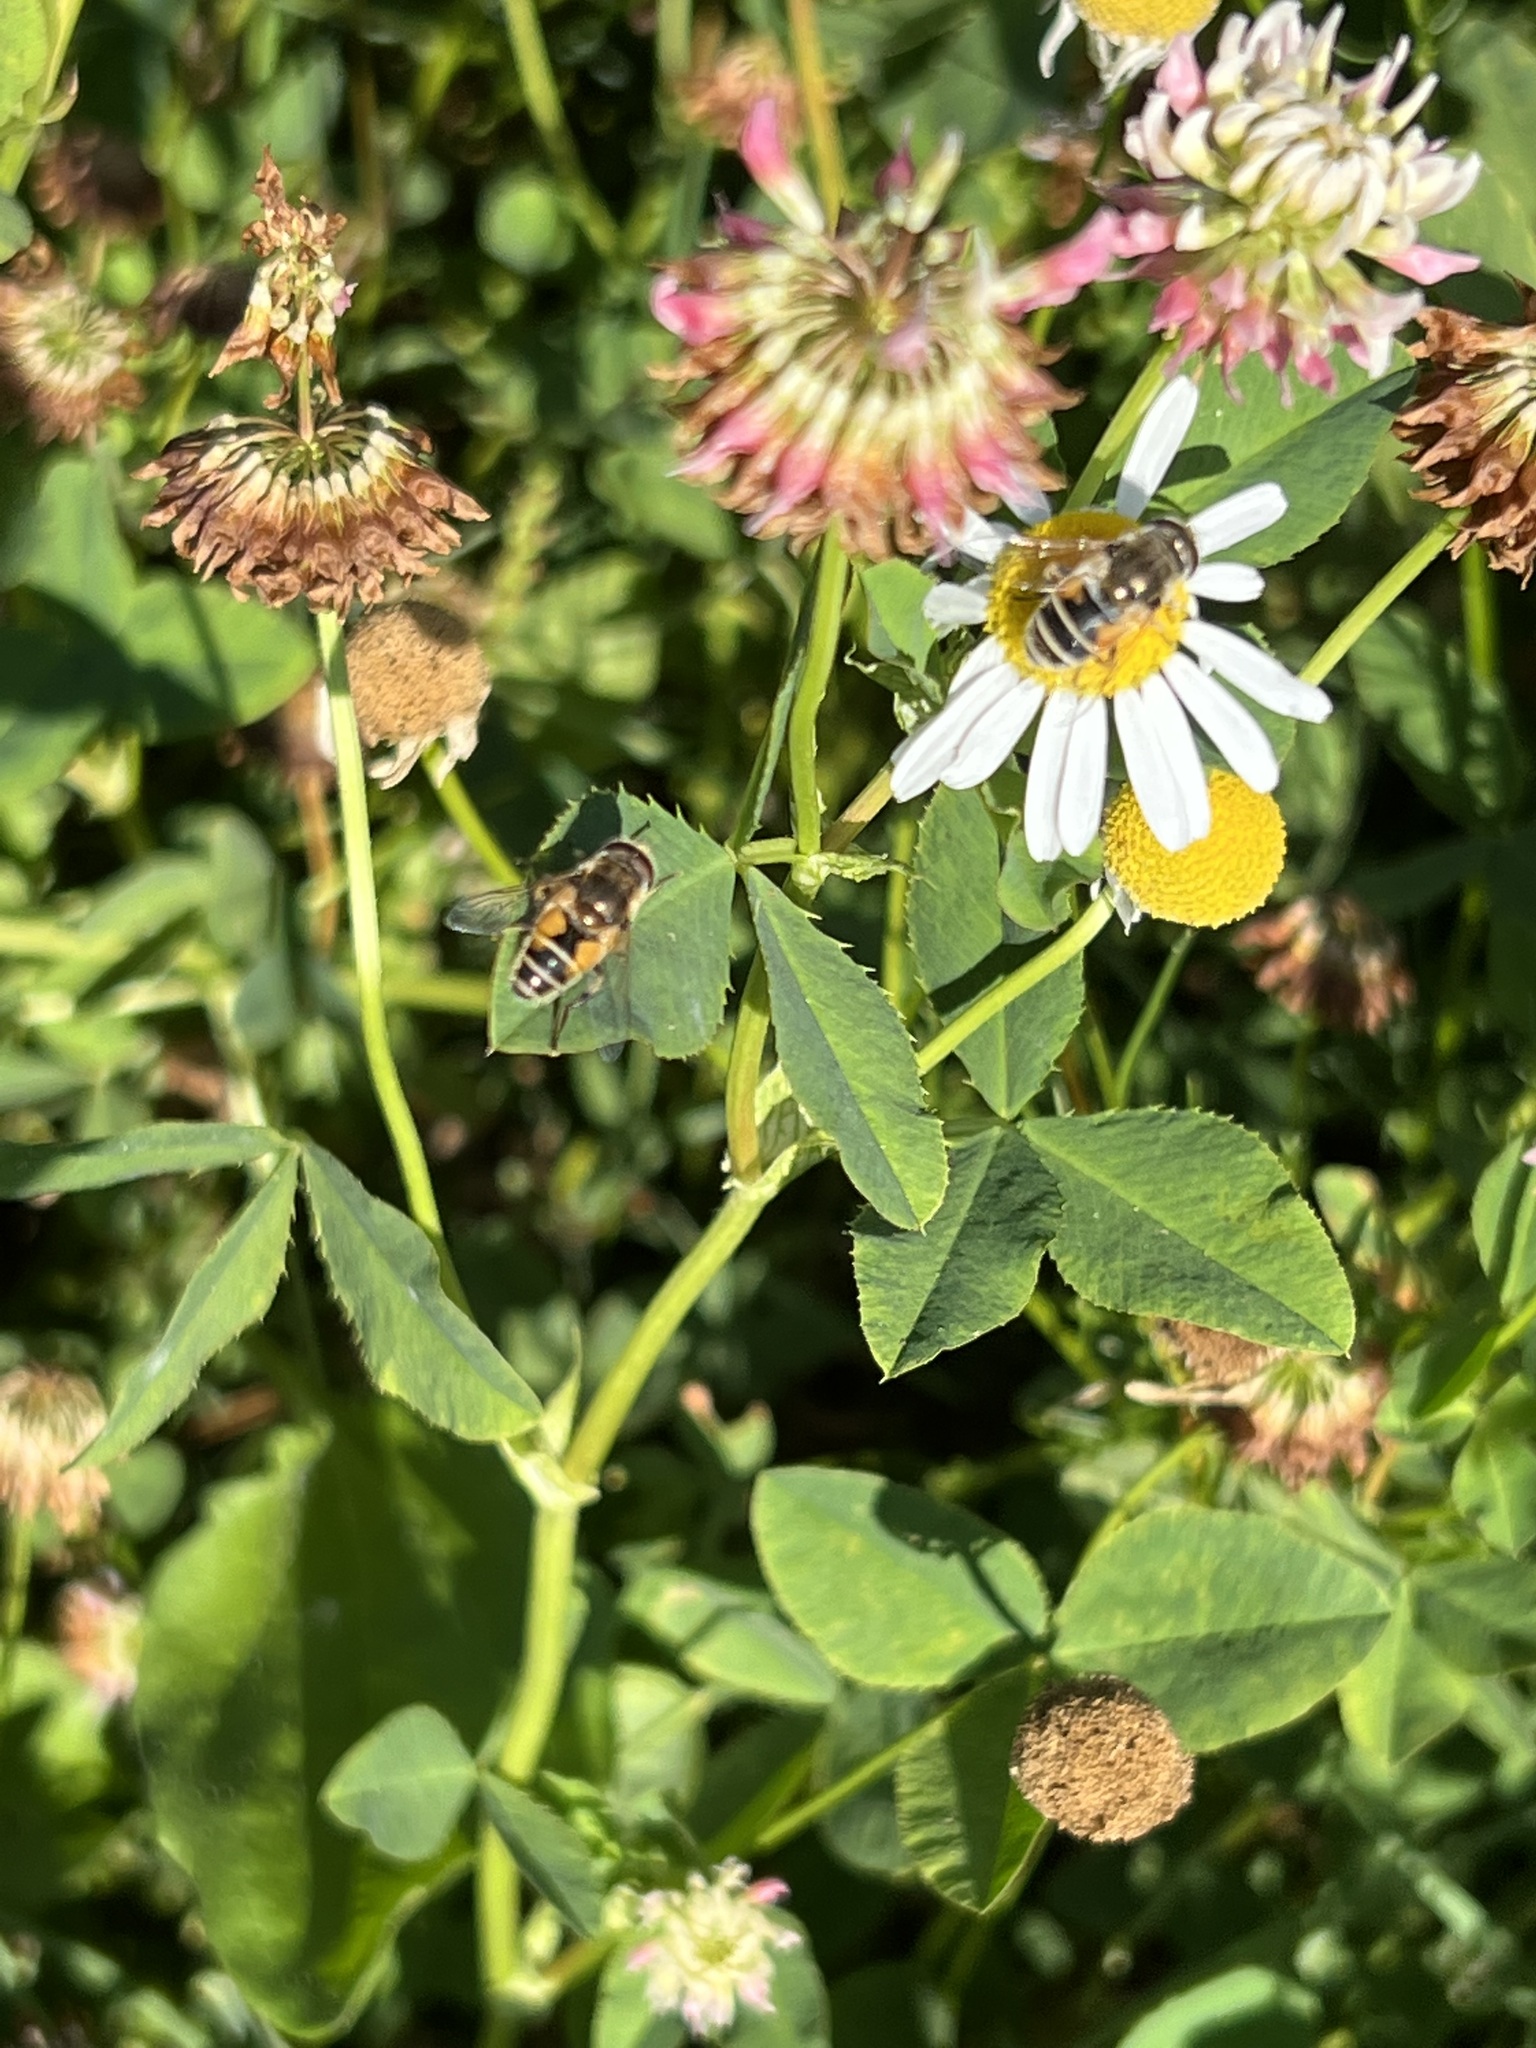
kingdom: Animalia
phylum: Arthropoda
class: Insecta
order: Diptera
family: Syrphidae
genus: Eristalis
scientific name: Eristalis arbustorum
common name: Hover fly
